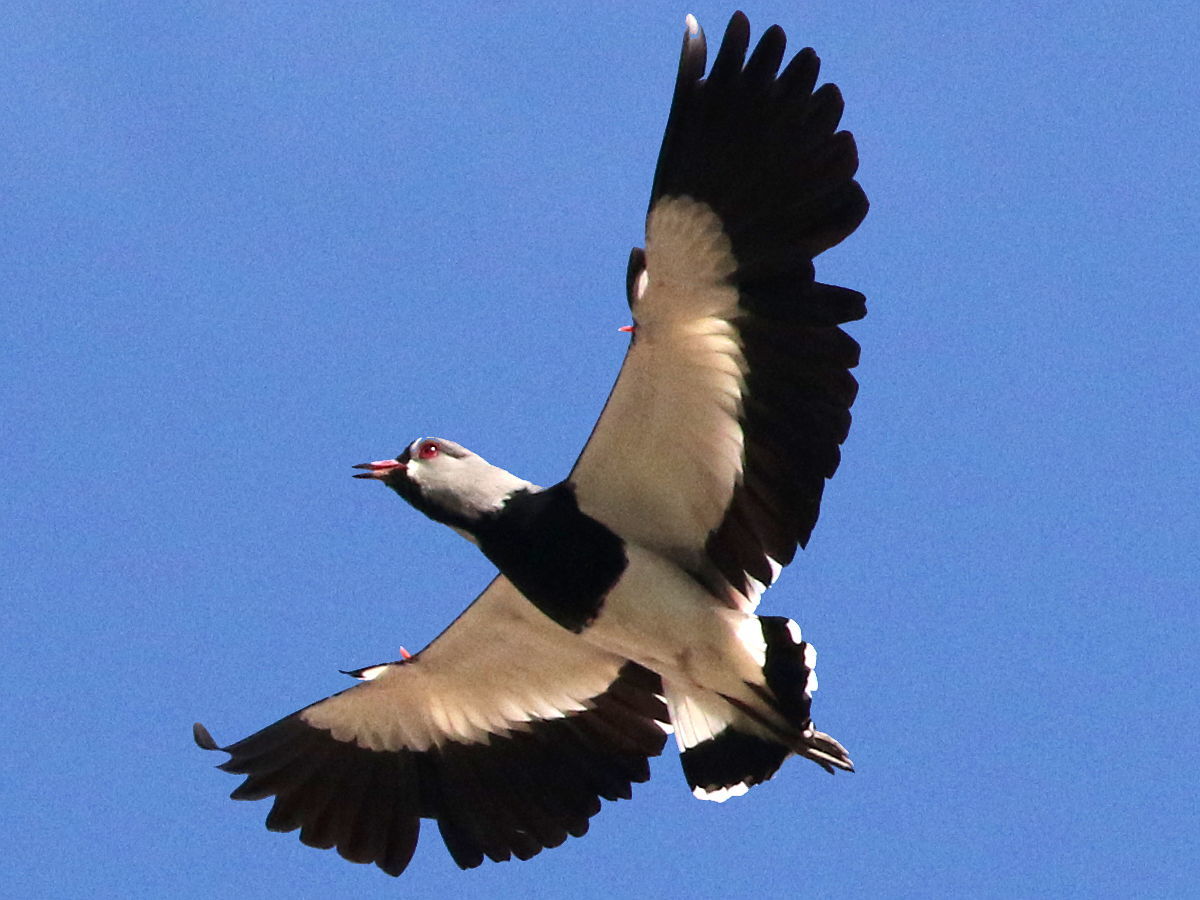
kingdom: Animalia
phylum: Chordata
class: Aves
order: Charadriiformes
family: Charadriidae
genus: Vanellus
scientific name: Vanellus chilensis
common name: Southern lapwing
